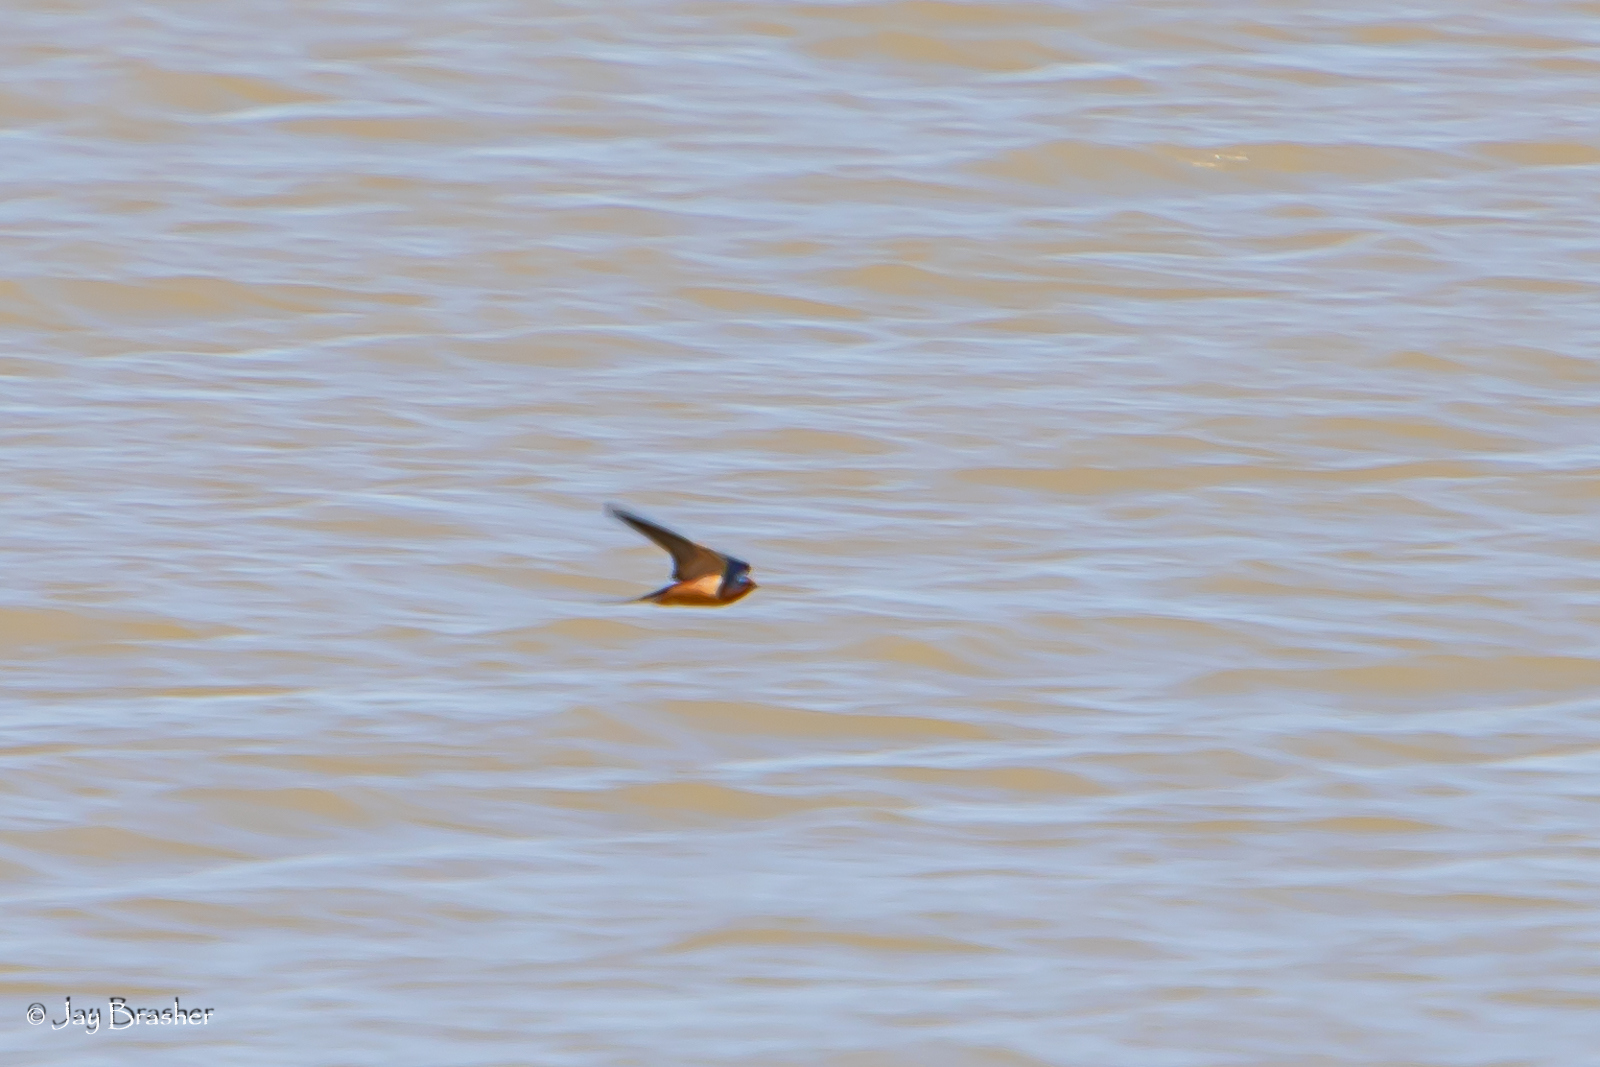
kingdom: Animalia
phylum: Chordata
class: Aves
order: Passeriformes
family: Hirundinidae
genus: Hirundo
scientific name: Hirundo rustica
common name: Barn swallow
